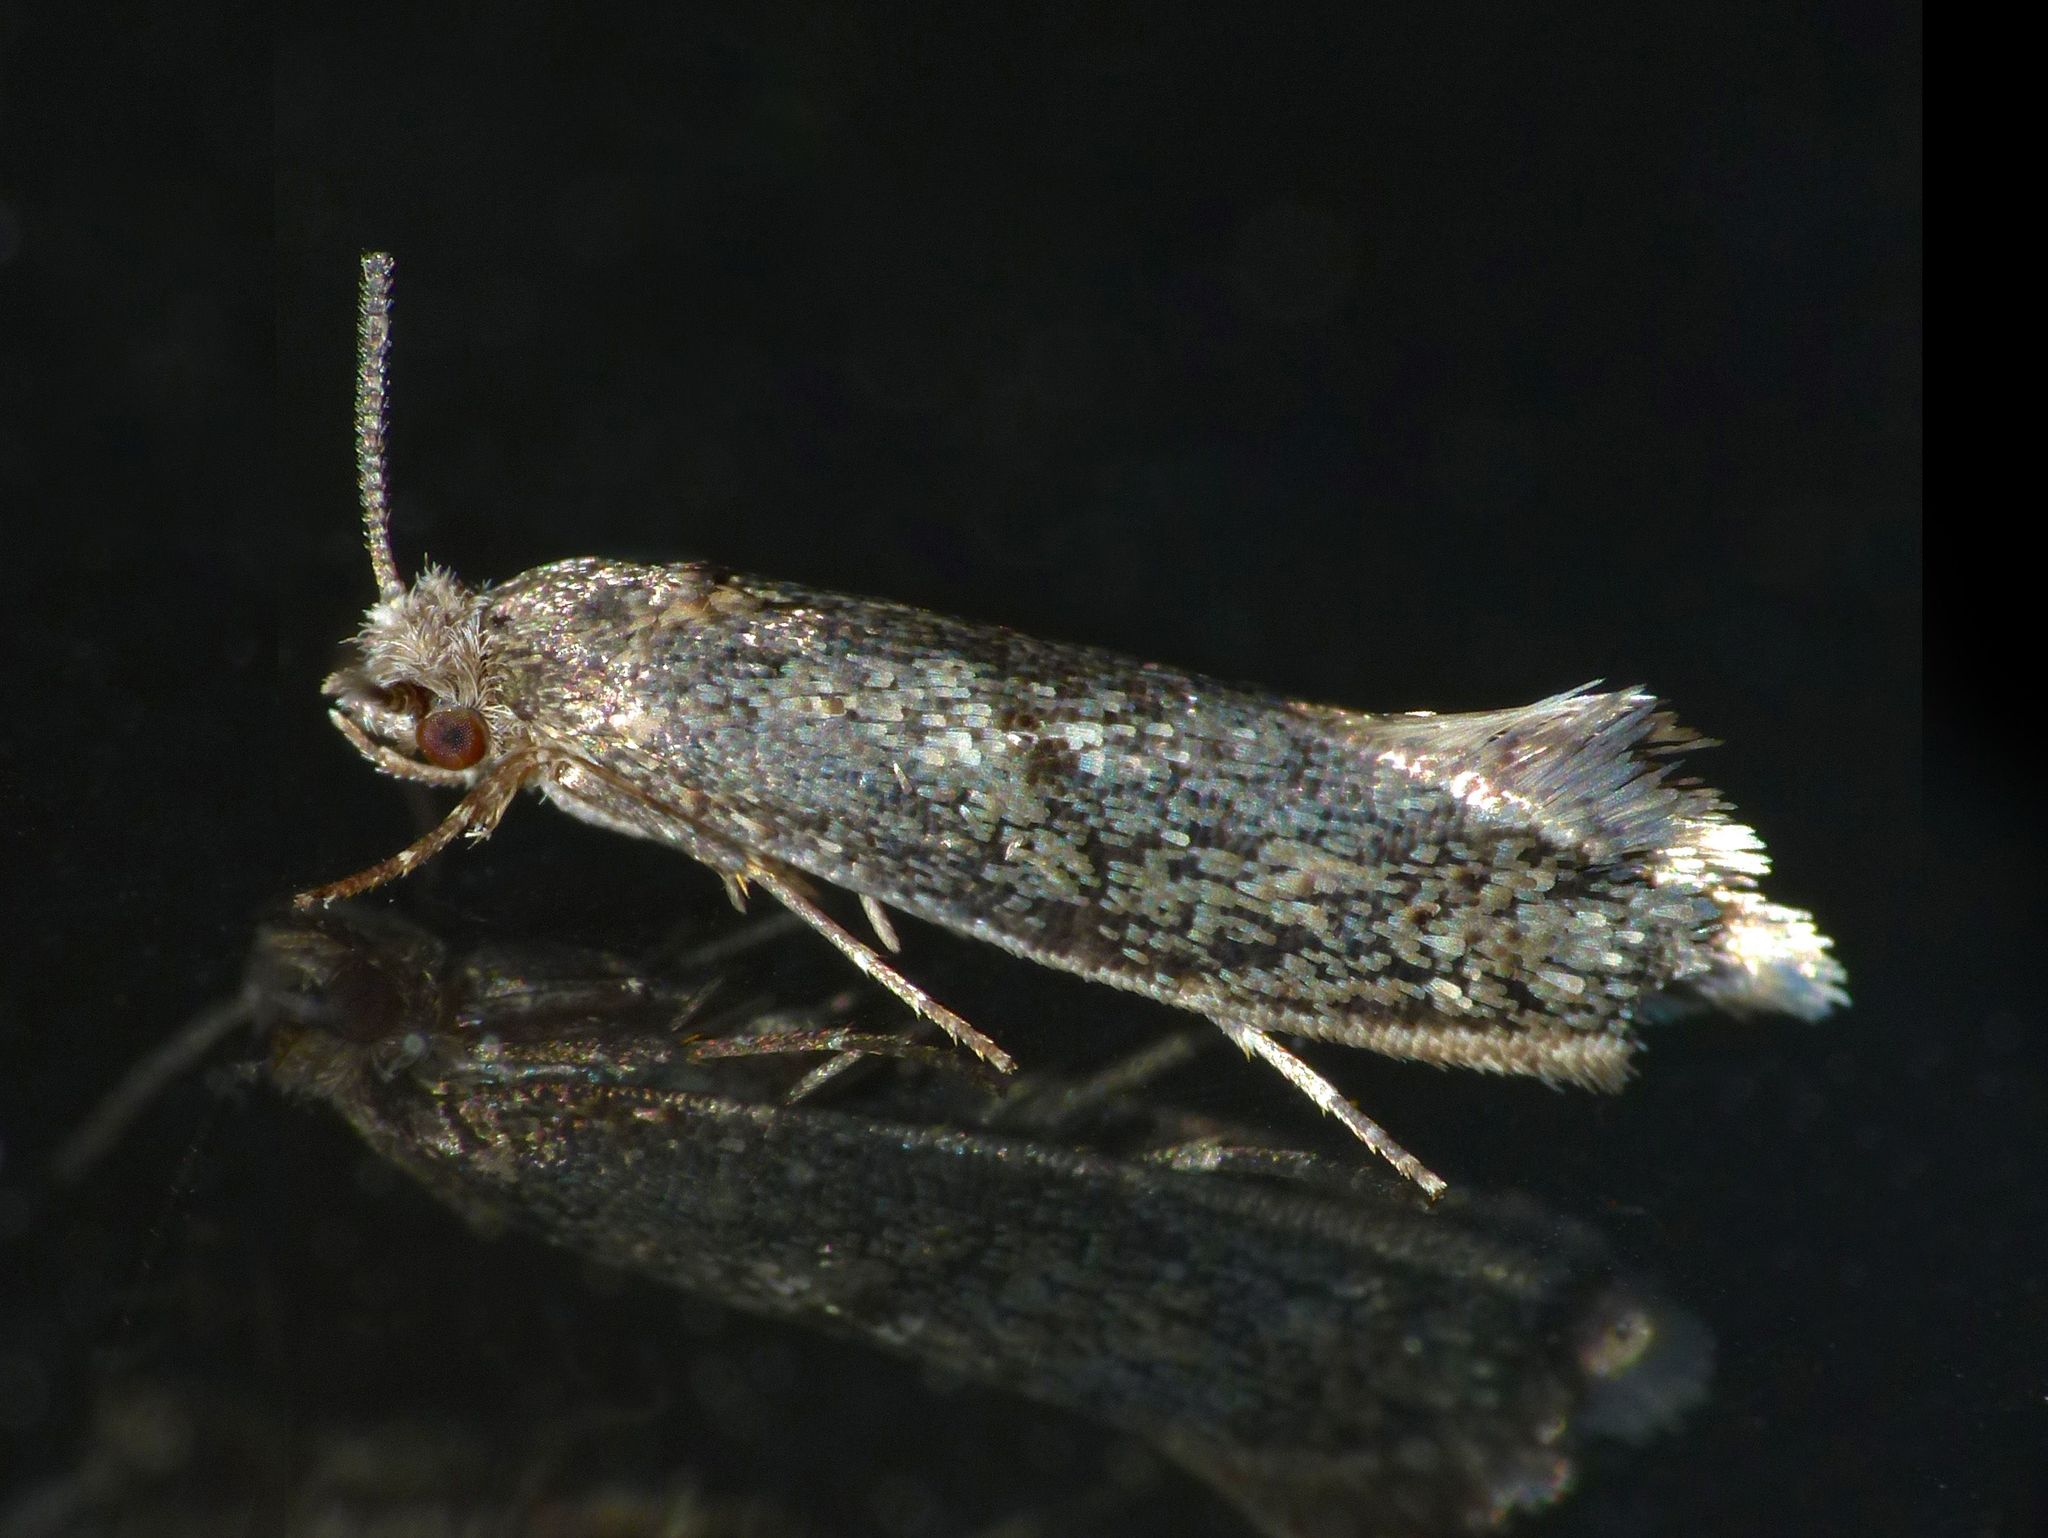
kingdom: Animalia
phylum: Arthropoda
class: Insecta
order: Lepidoptera
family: Tineidae
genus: Opogona
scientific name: Opogona omoscopa
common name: Moth
